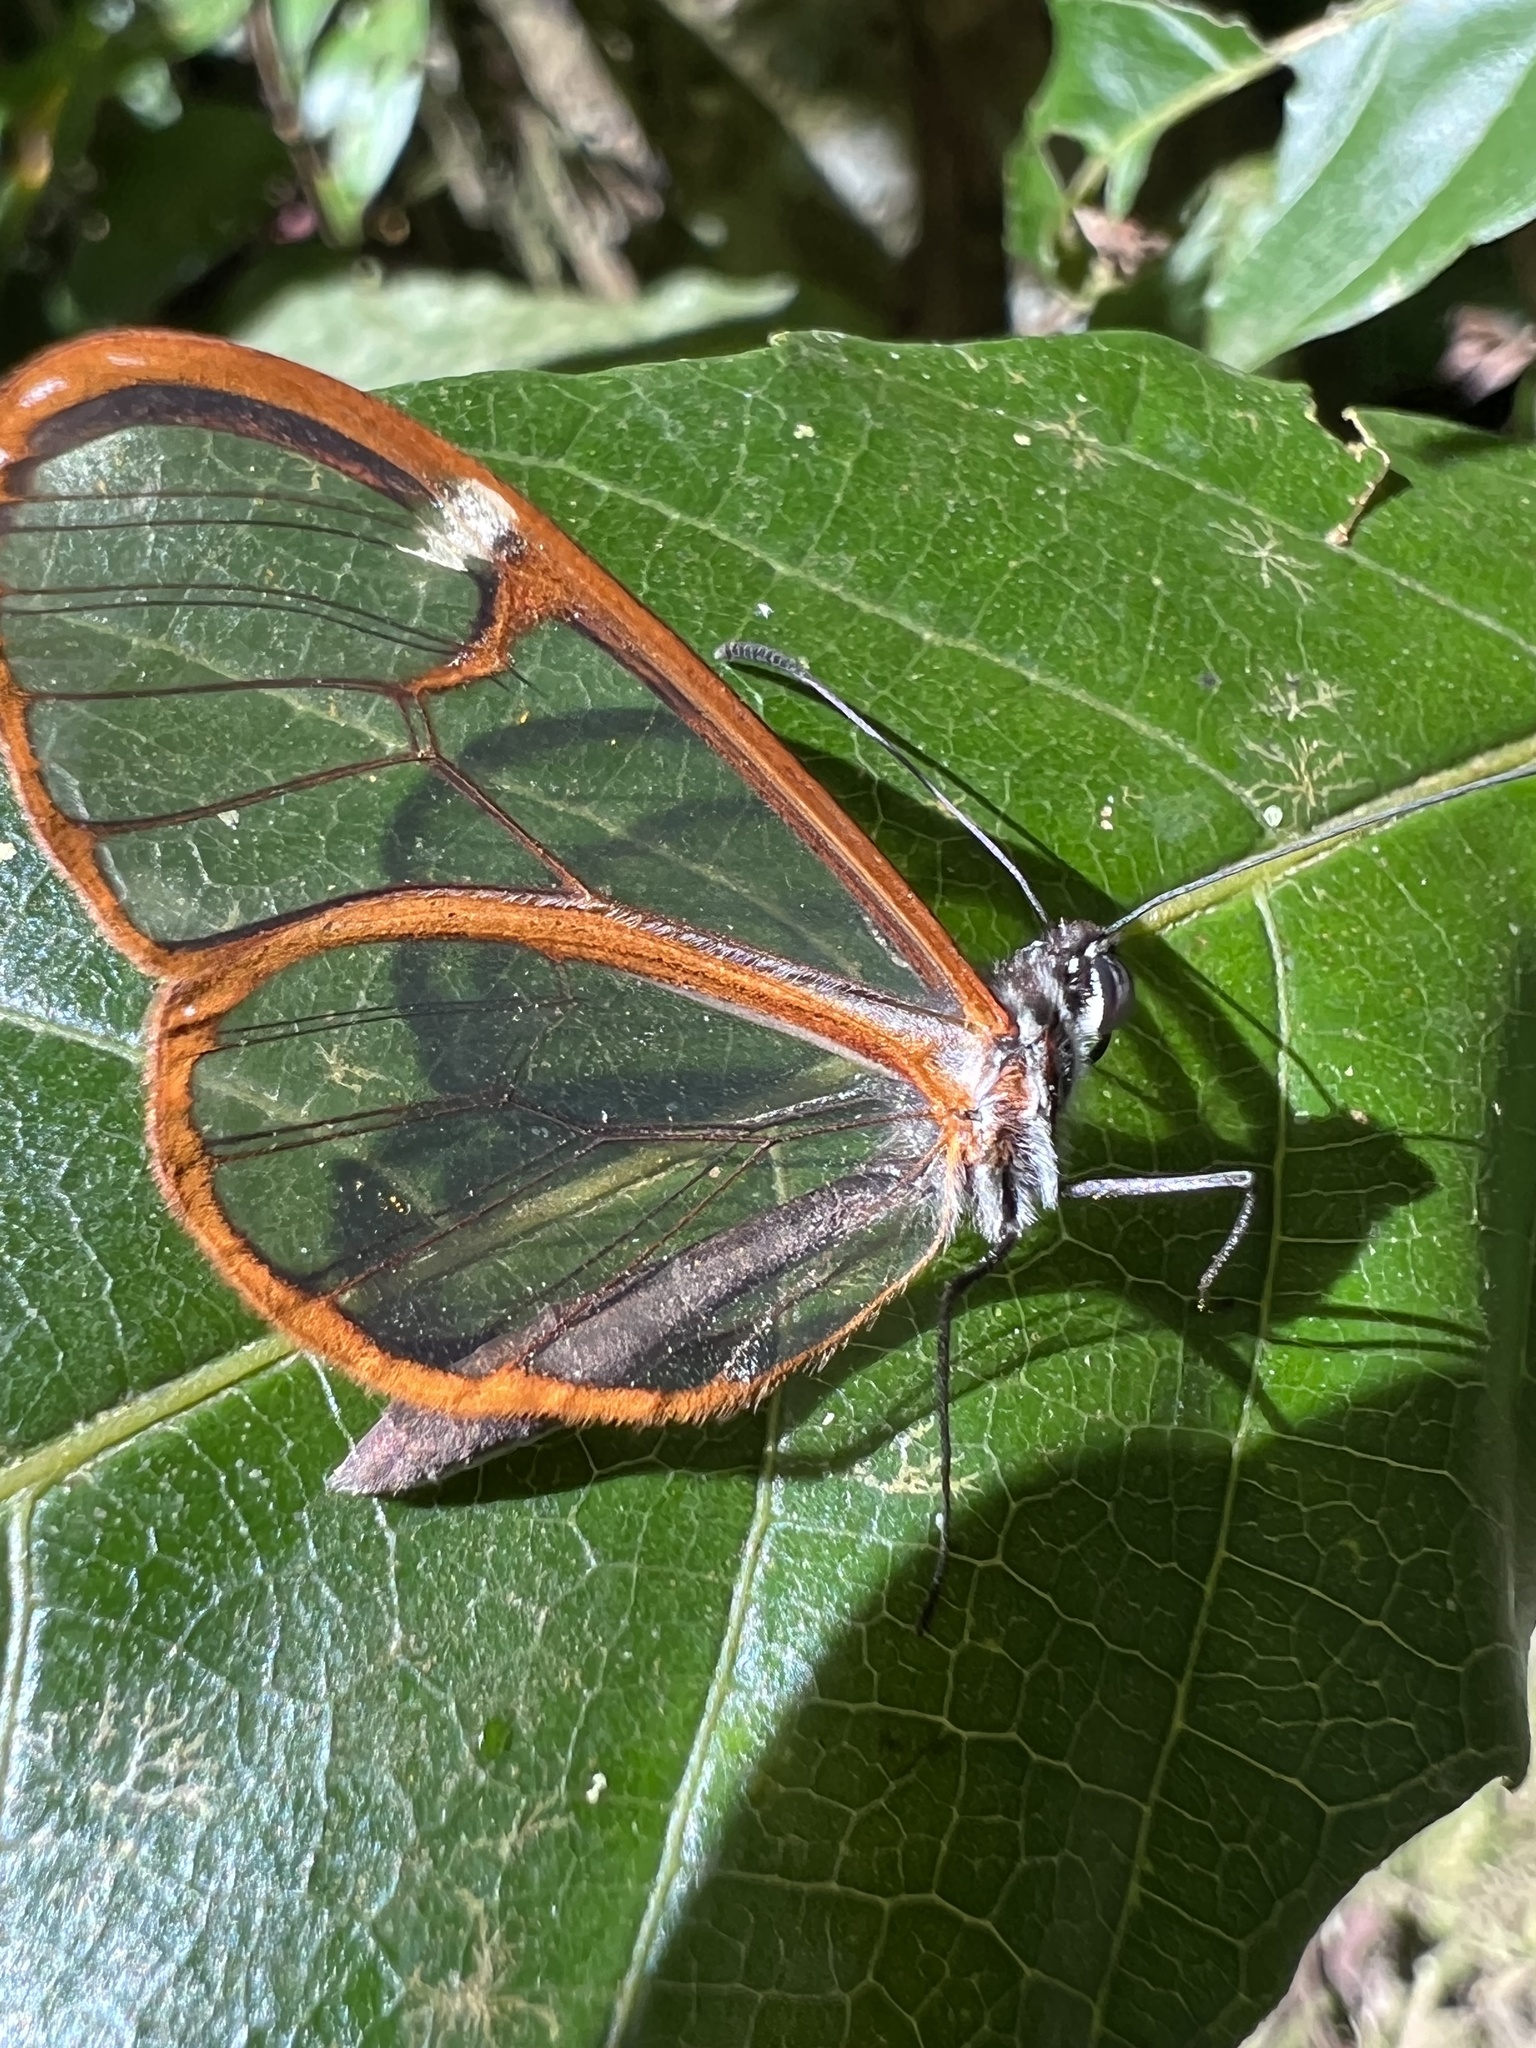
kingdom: Animalia
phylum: Arthropoda
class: Insecta
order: Lepidoptera
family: Nymphalidae
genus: Pteronymia
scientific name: Pteronymia simplex
